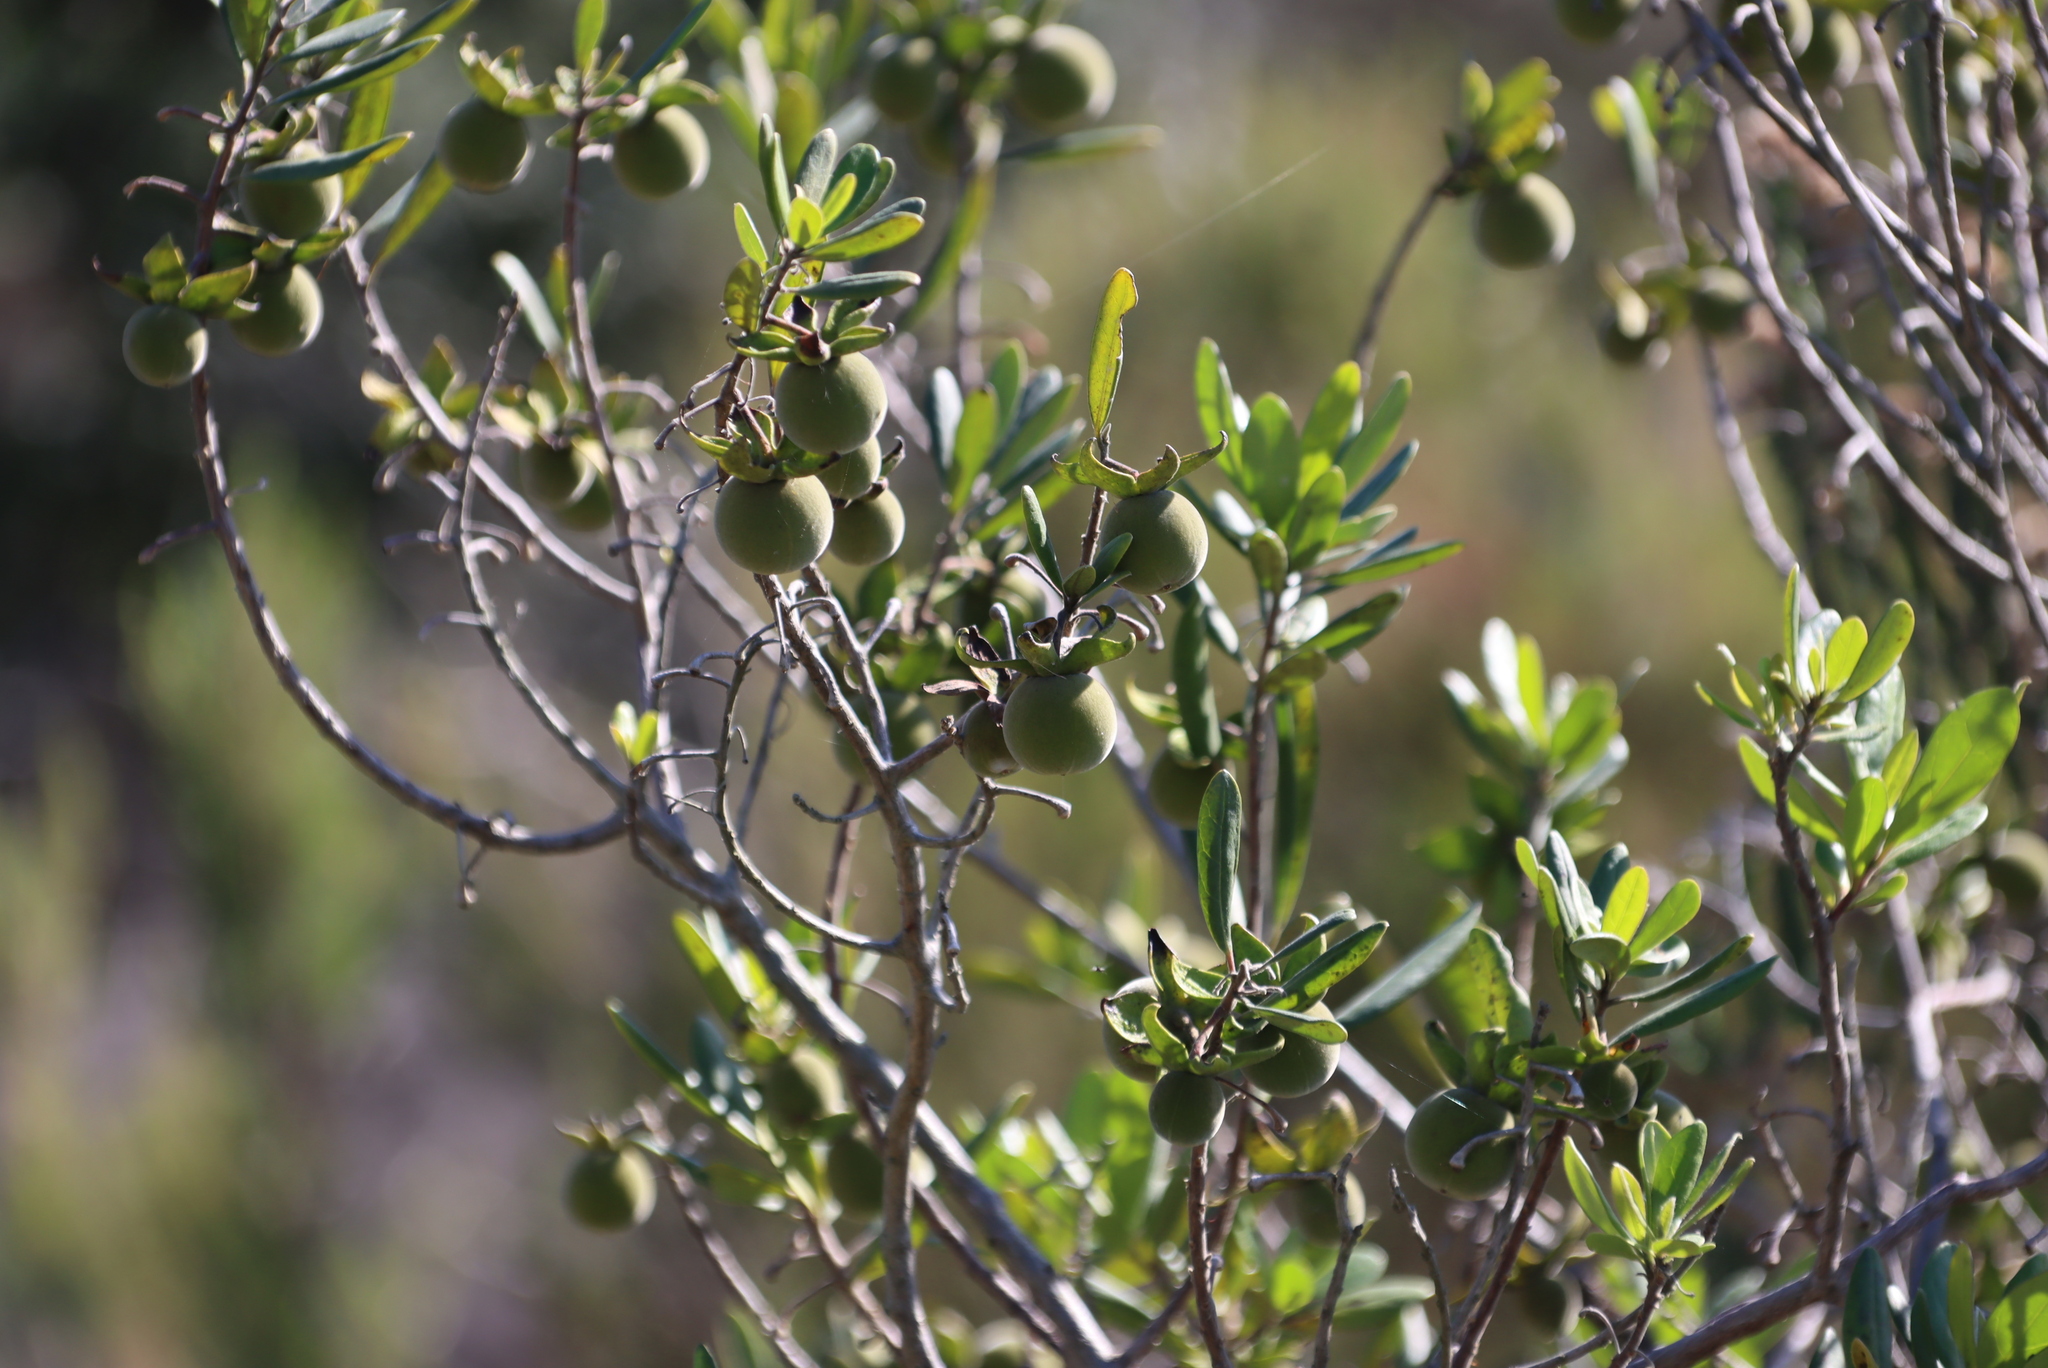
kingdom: Plantae
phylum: Tracheophyta
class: Magnoliopsida
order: Ericales
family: Ebenaceae
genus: Diospyros
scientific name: Diospyros dichrophylla
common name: Common star-apple
